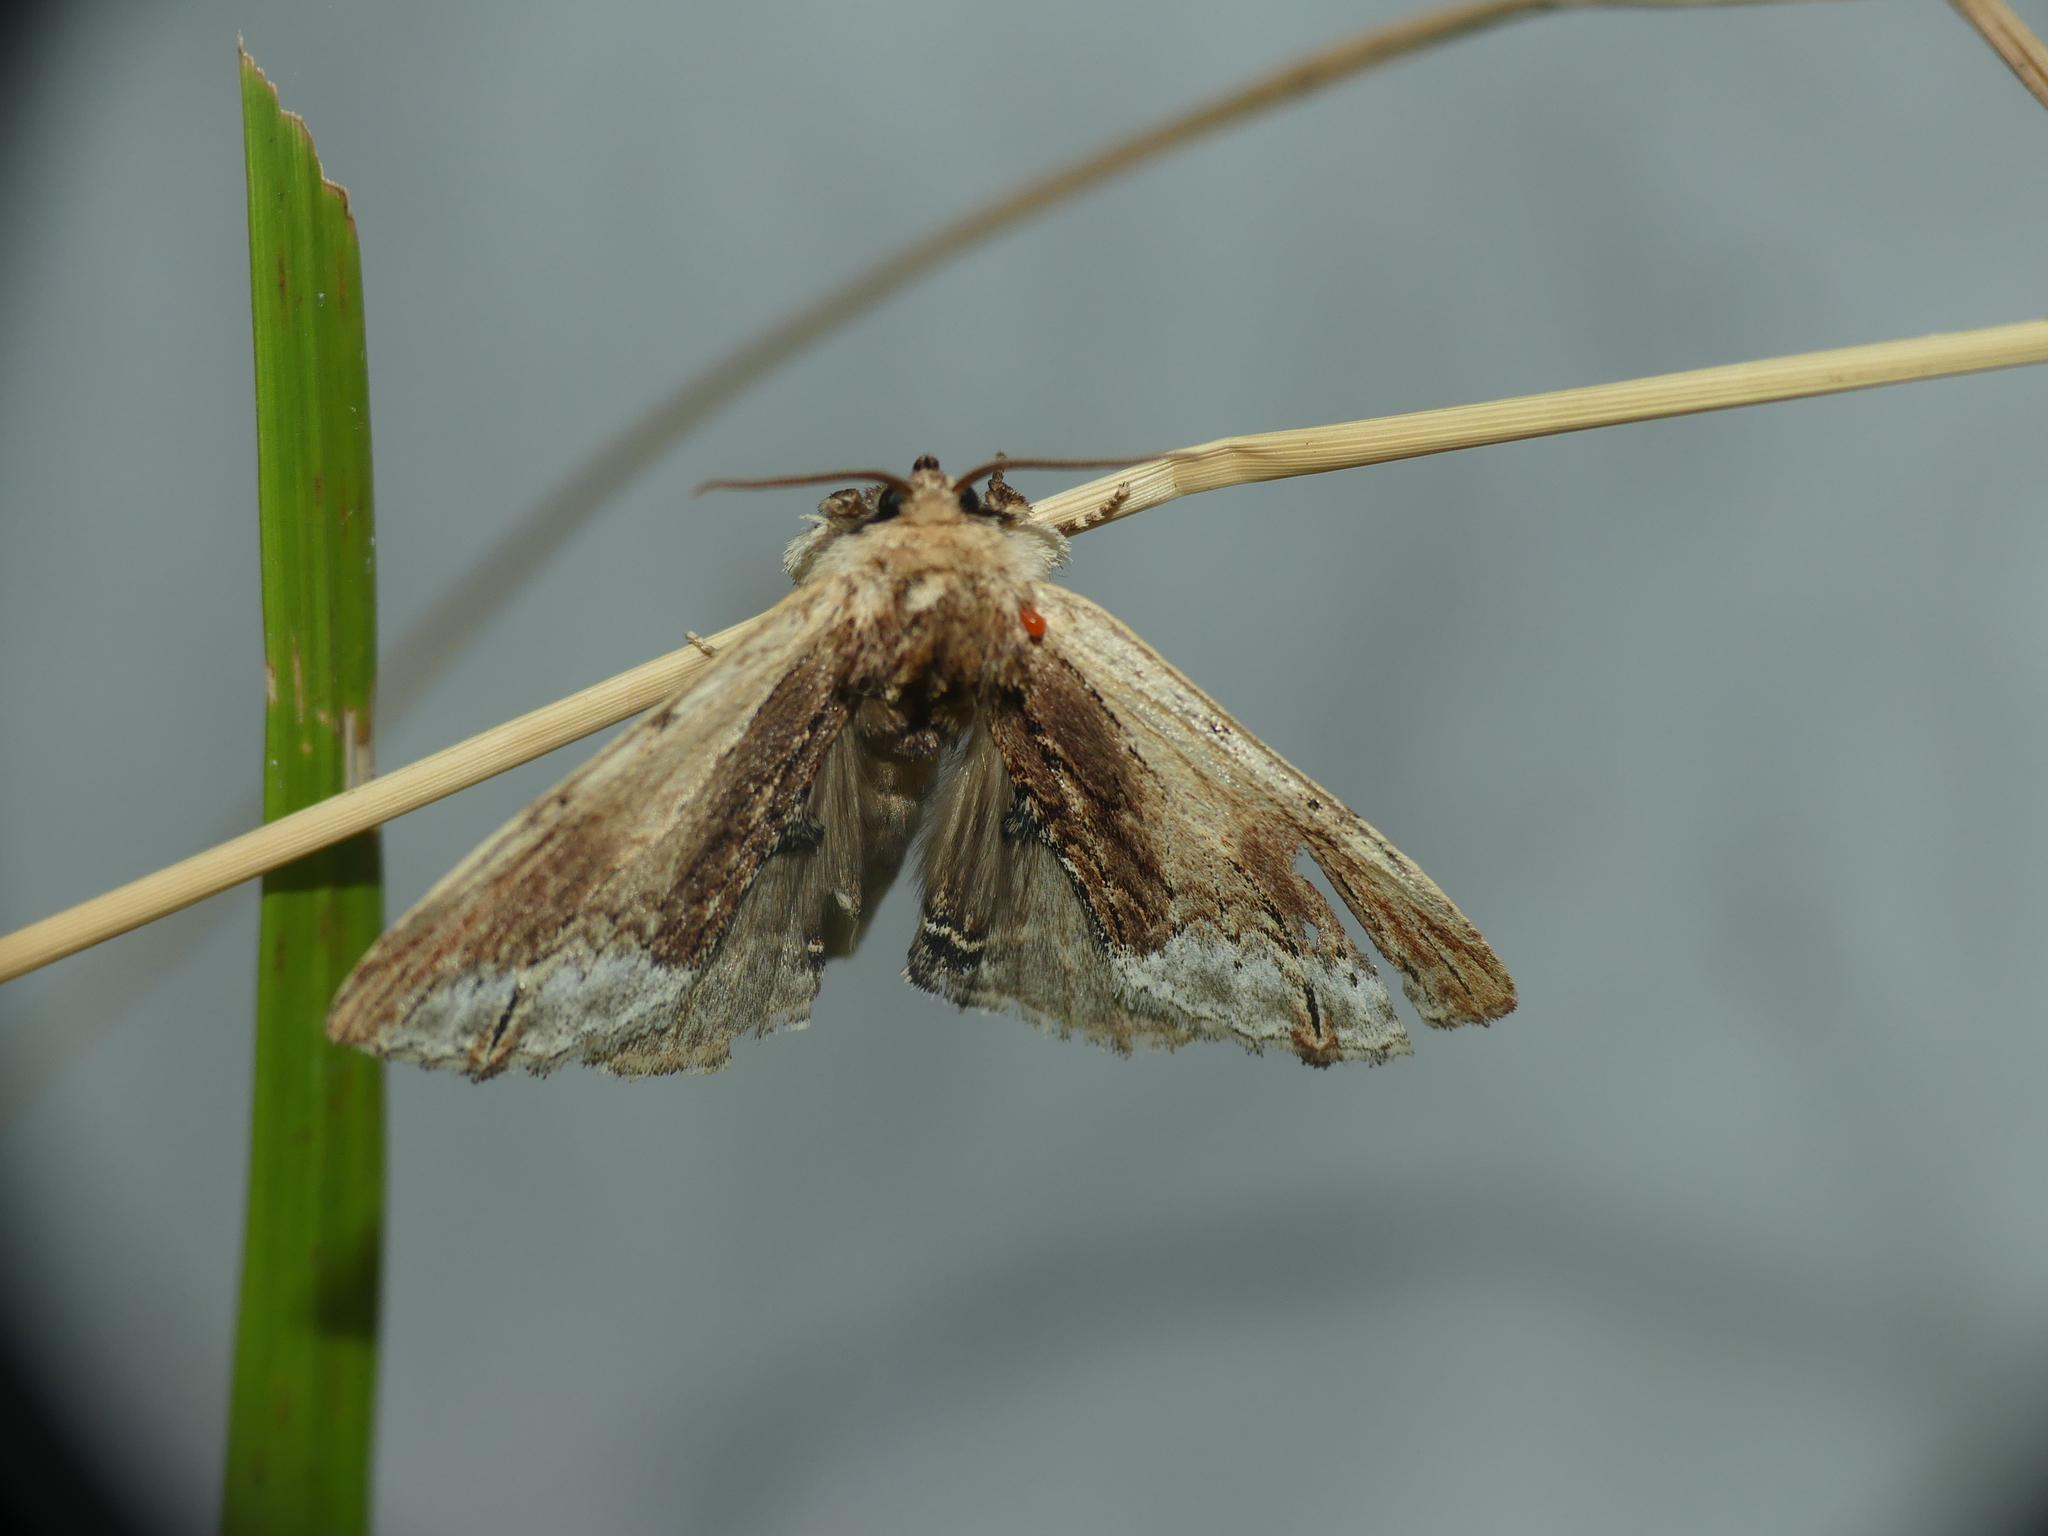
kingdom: Animalia
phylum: Arthropoda
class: Insecta
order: Lepidoptera
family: Notodontidae
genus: Ptilodon
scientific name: Ptilodon cucullina
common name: Maple prominent
